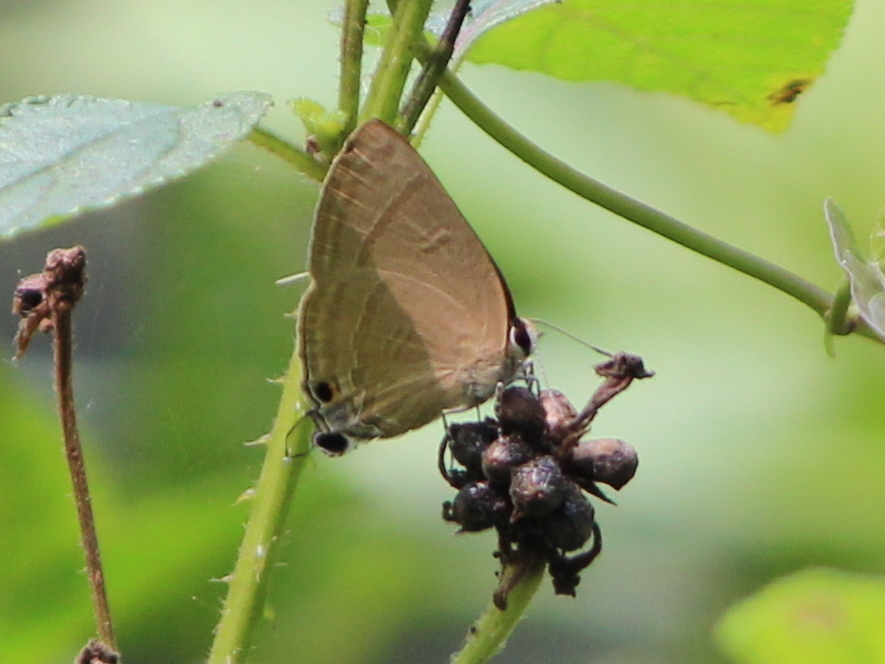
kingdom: Animalia
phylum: Arthropoda
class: Insecta
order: Lepidoptera
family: Lycaenidae
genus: Rapala
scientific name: Rapala manea
